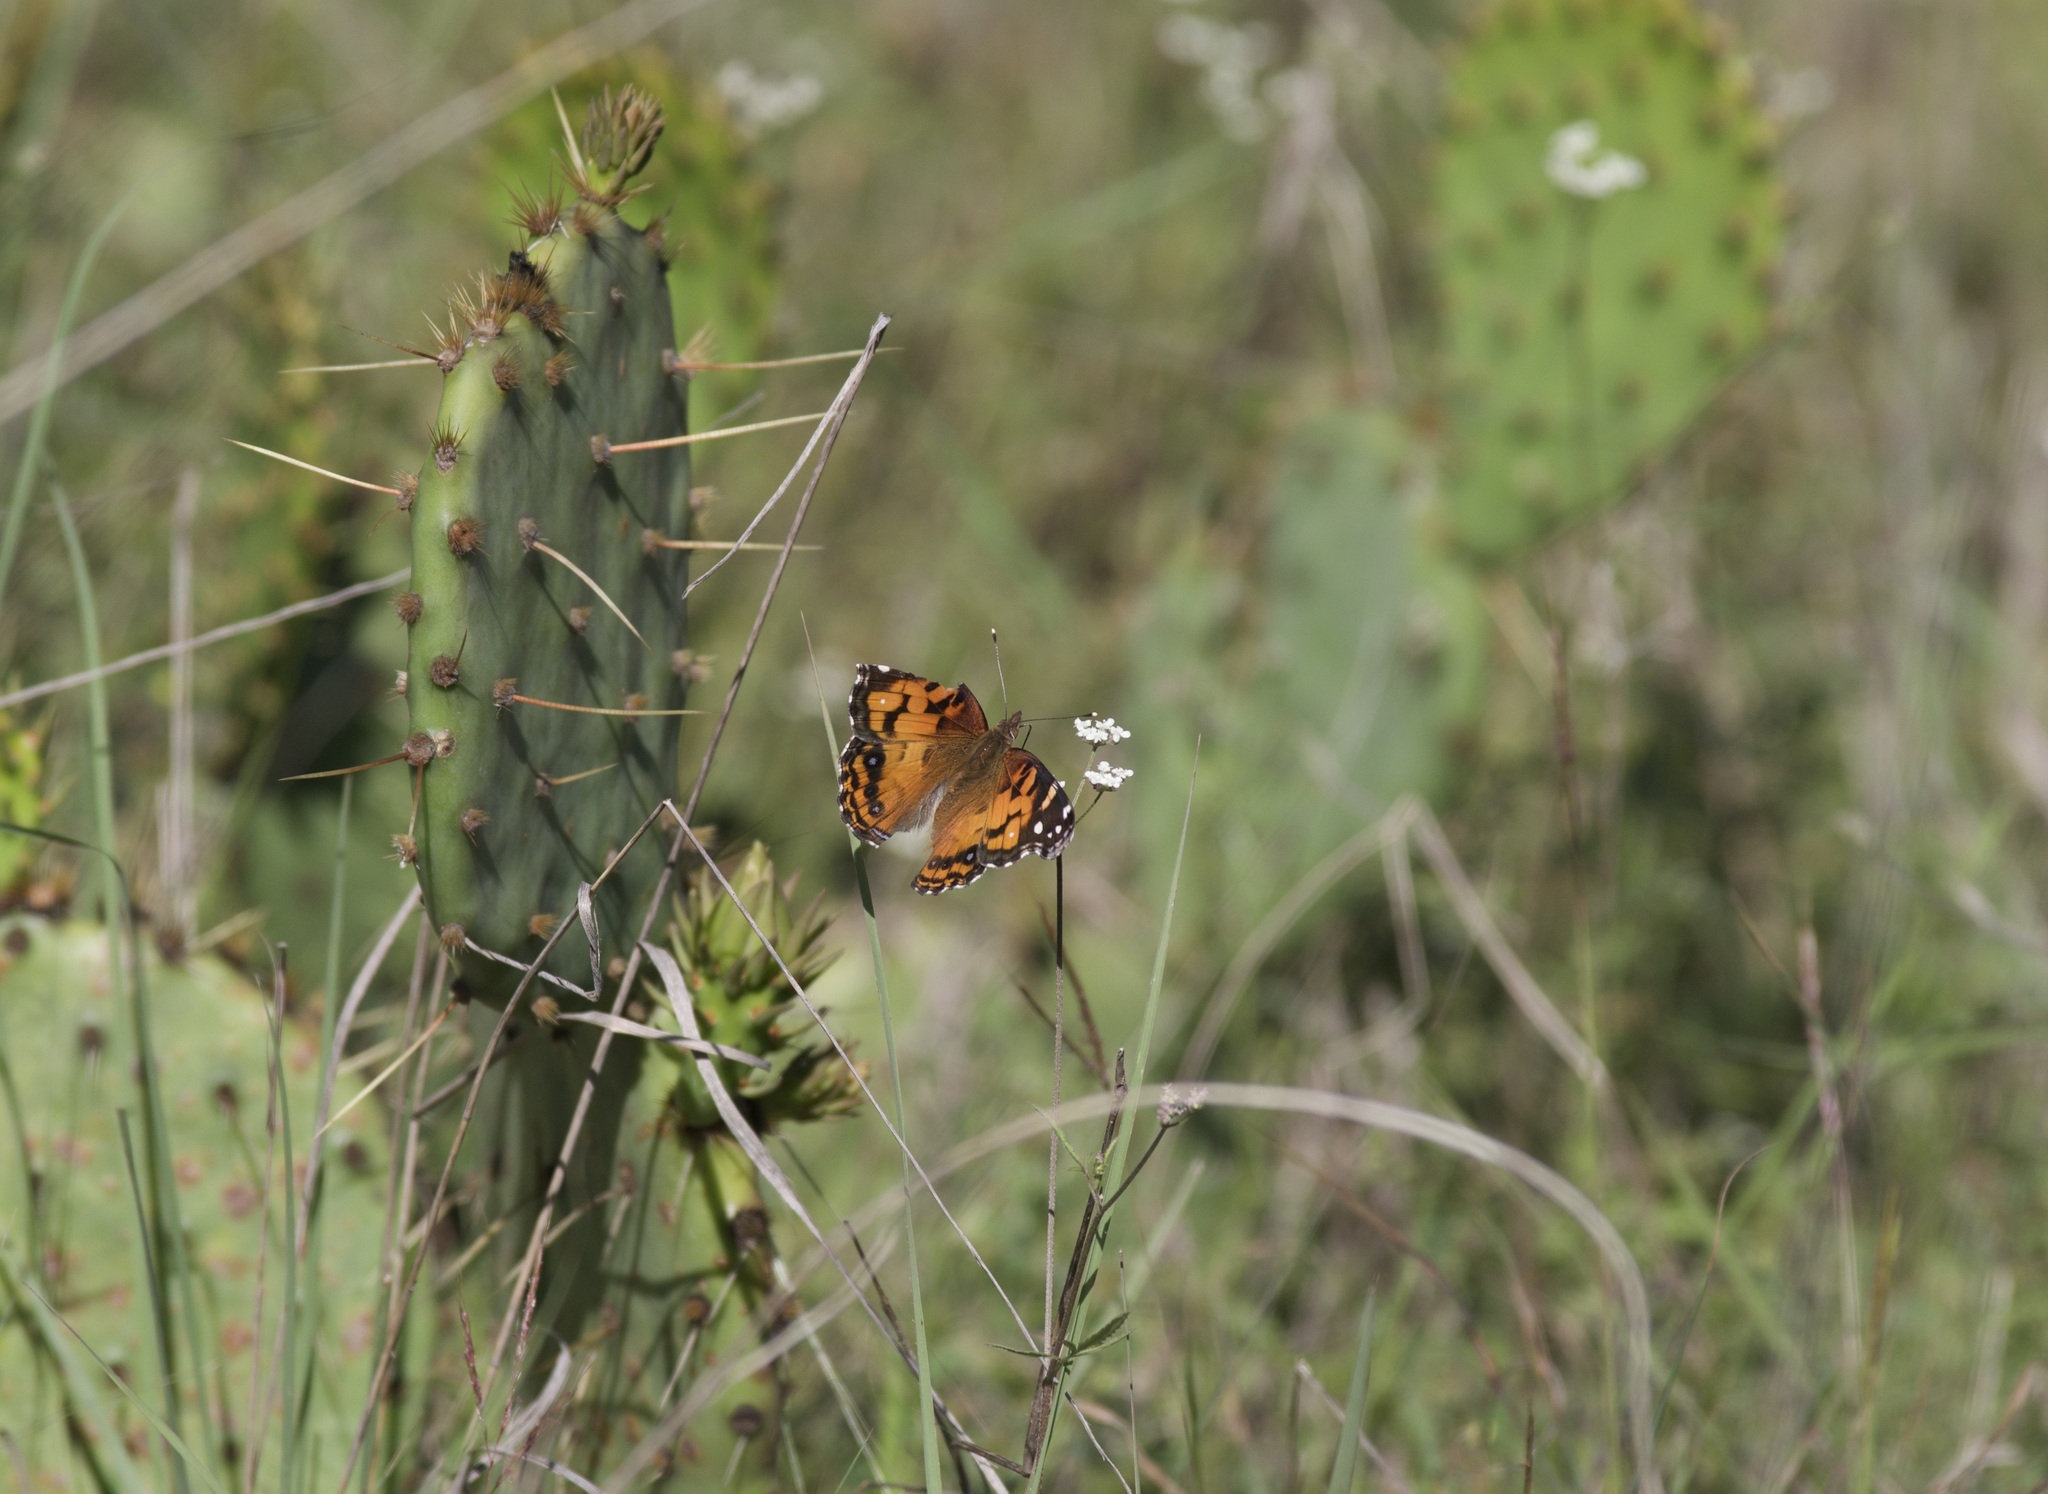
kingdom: Animalia
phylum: Arthropoda
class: Insecta
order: Lepidoptera
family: Nymphalidae
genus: Vanessa
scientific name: Vanessa virginiensis
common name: American lady
